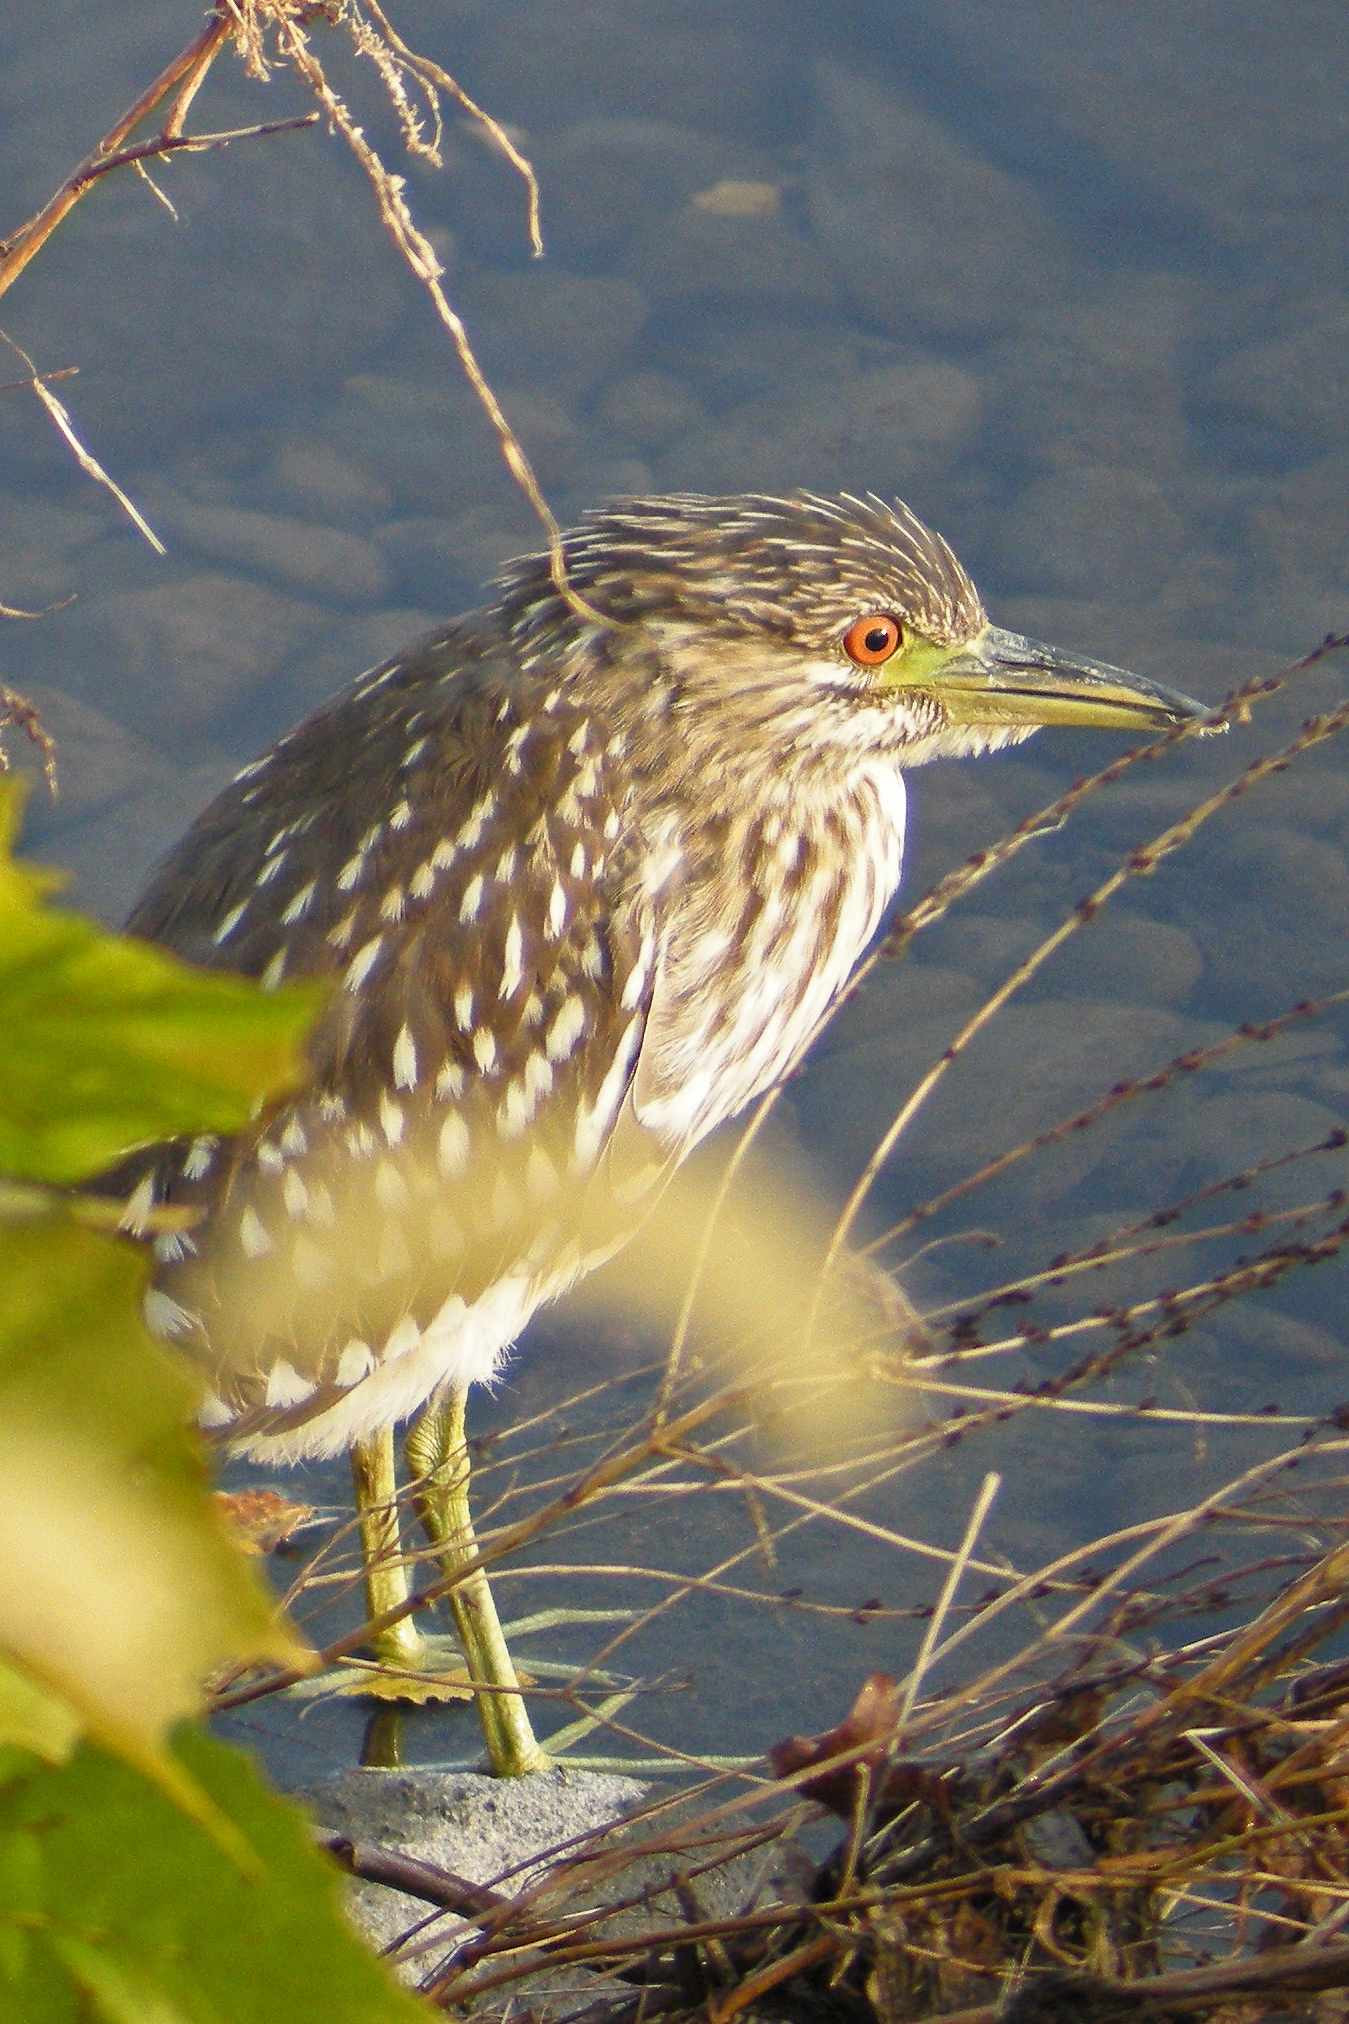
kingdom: Animalia
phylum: Chordata
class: Aves
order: Pelecaniformes
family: Ardeidae
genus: Nycticorax
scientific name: Nycticorax nycticorax
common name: Black-crowned night heron
